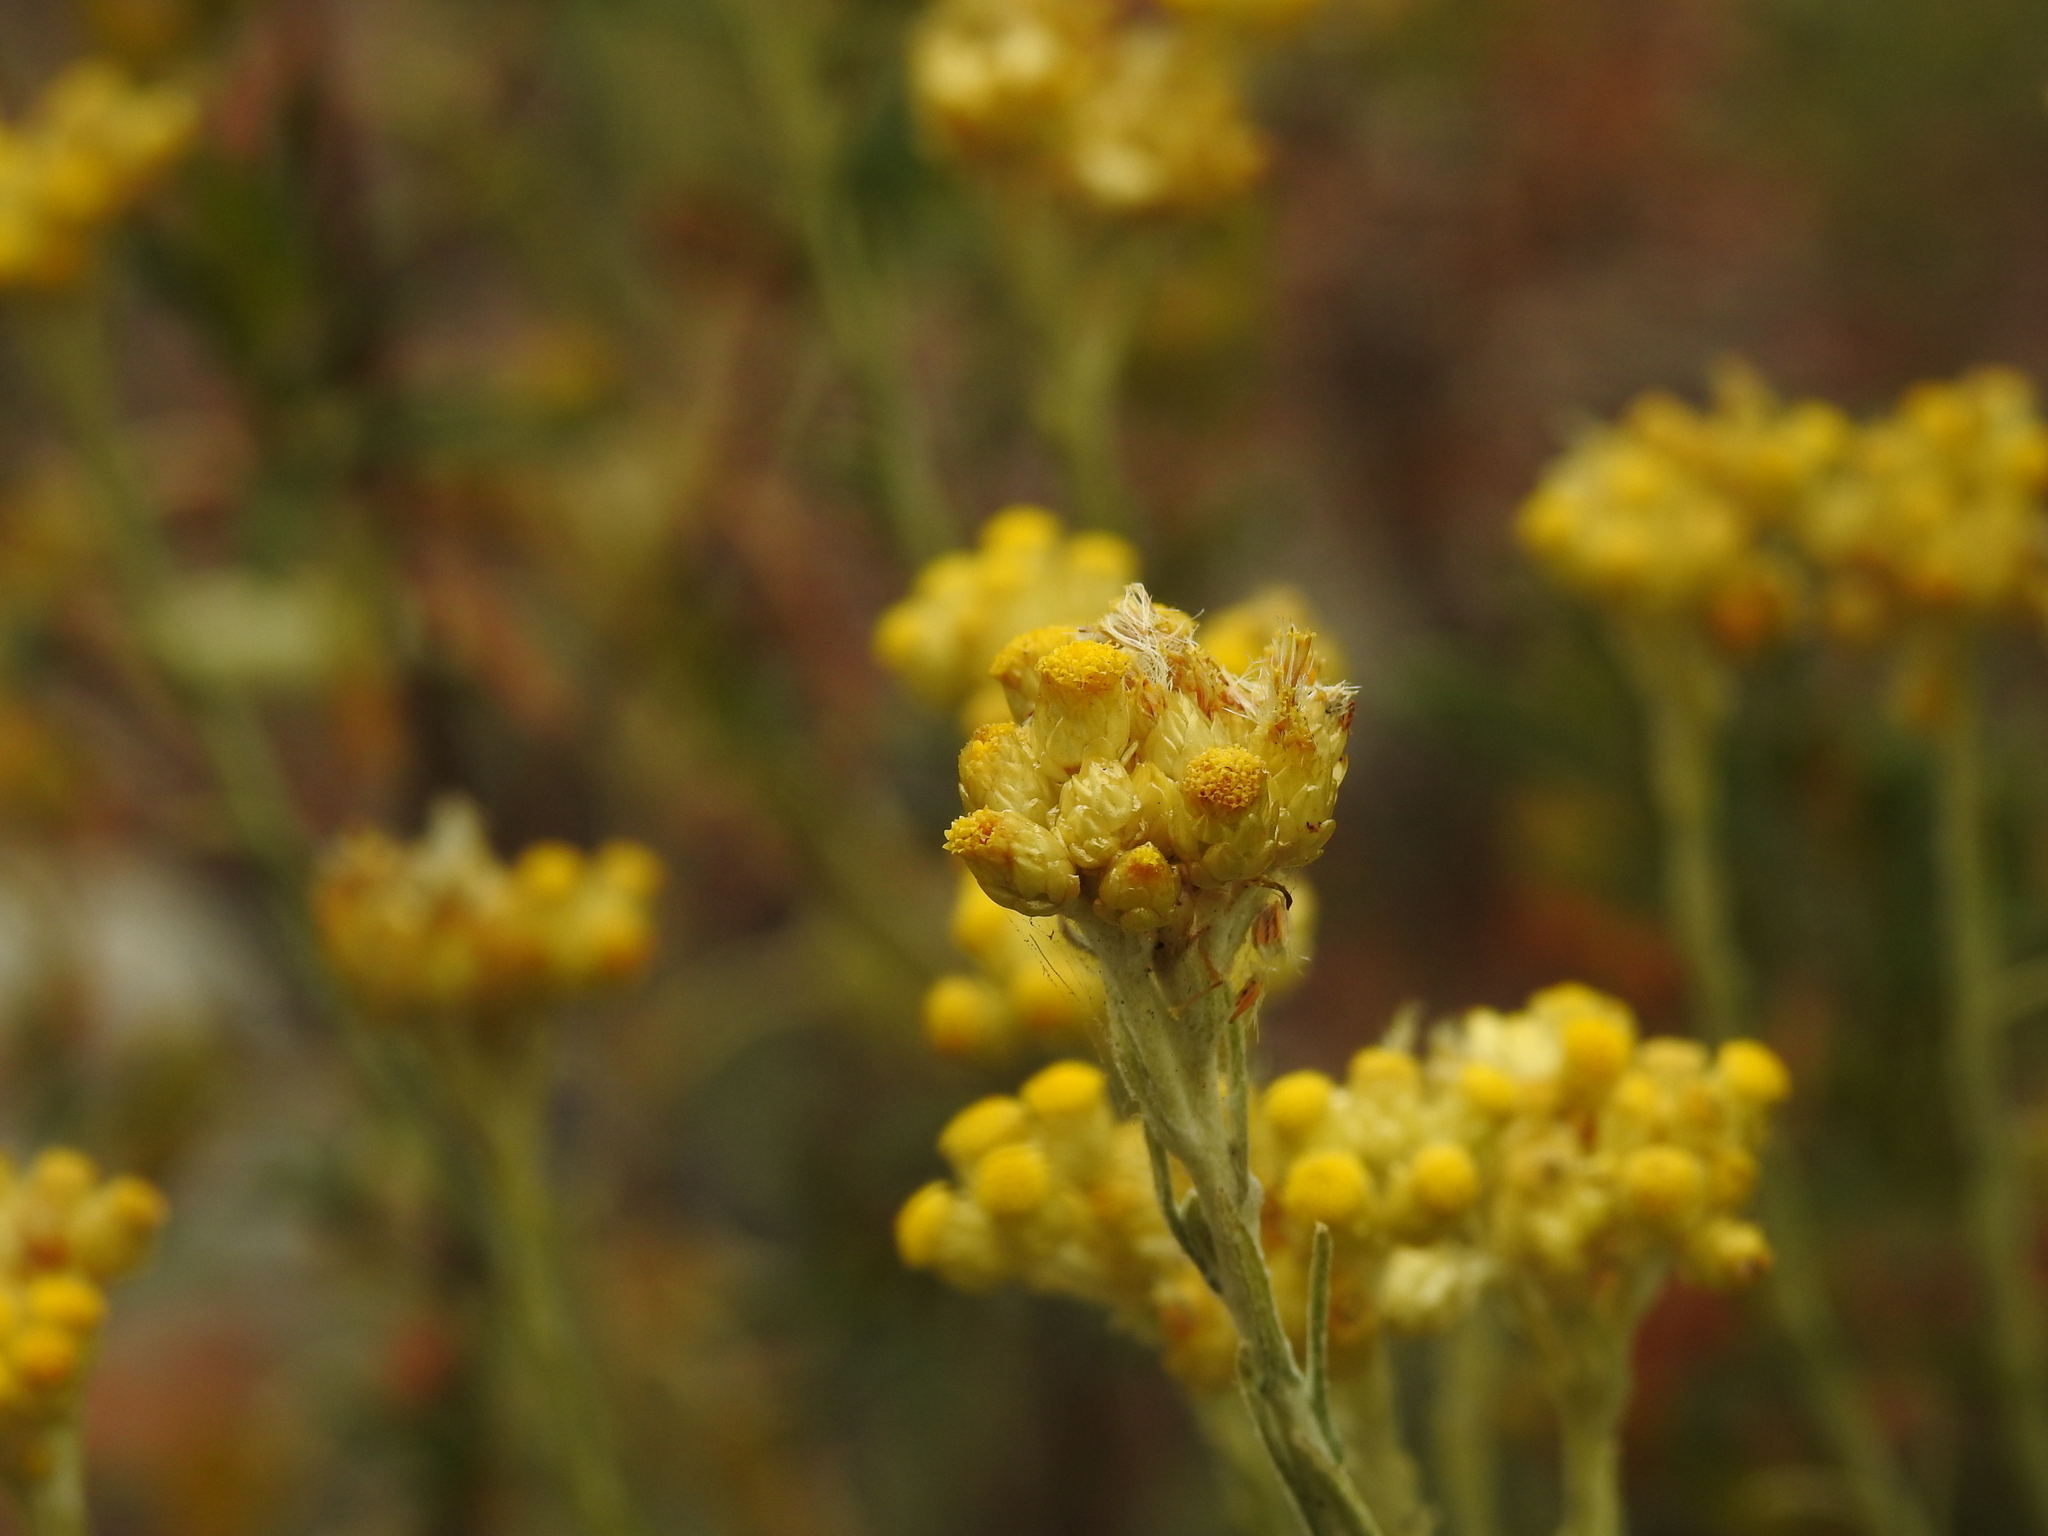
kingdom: Plantae
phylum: Tracheophyta
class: Magnoliopsida
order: Asterales
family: Asteraceae
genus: Helichrysum
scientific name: Helichrysum stoechas
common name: Goldilocks
